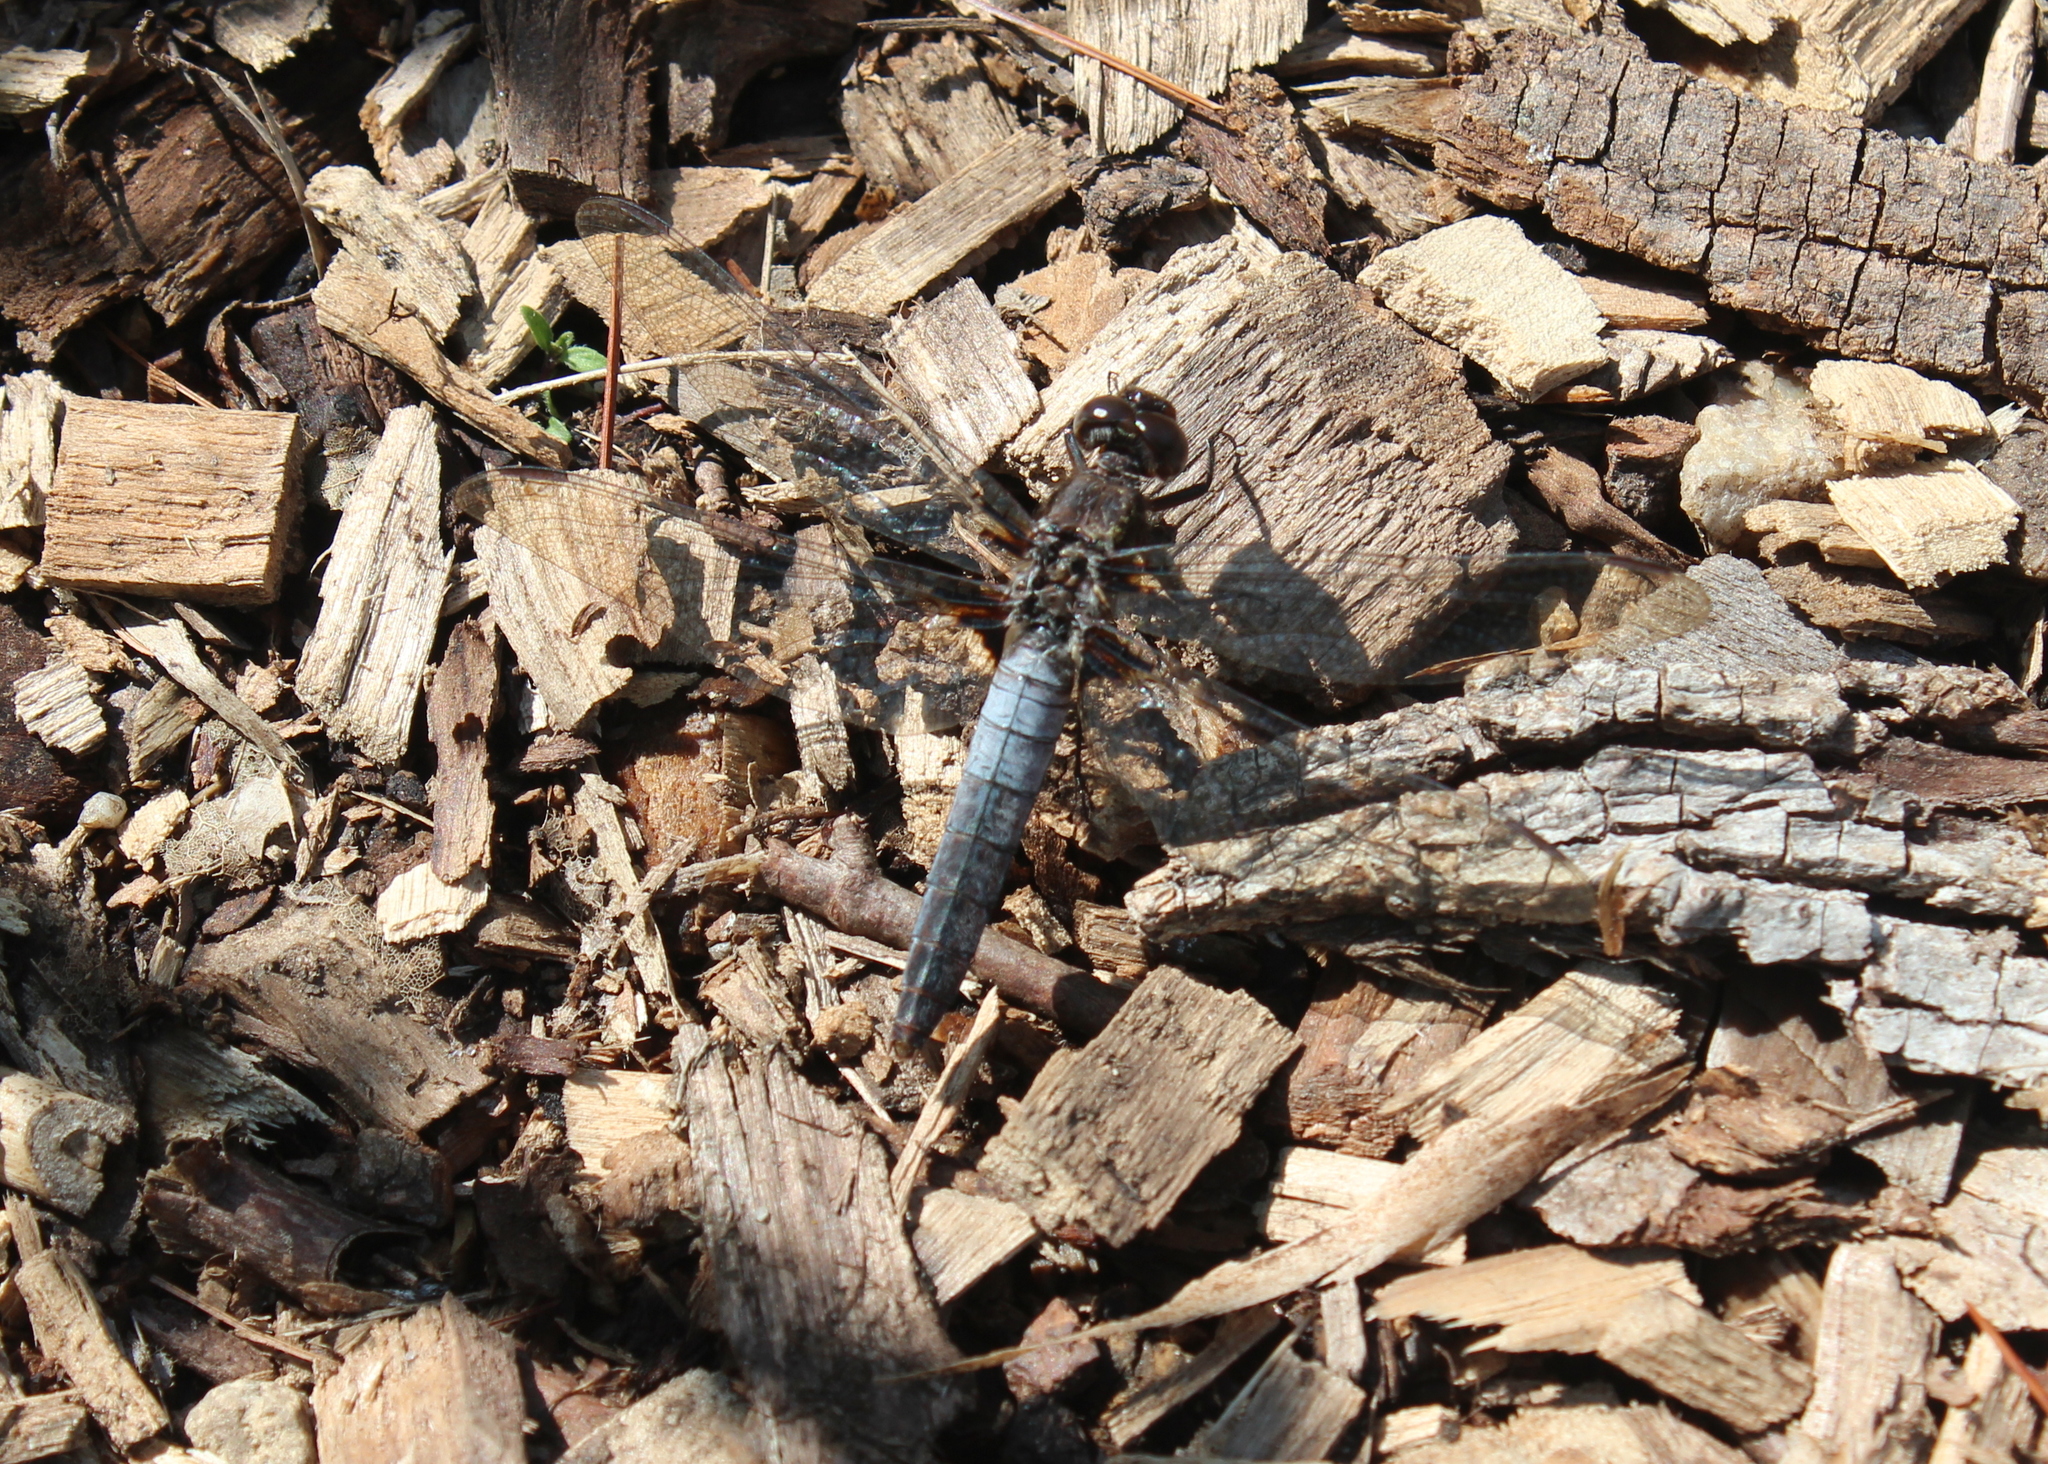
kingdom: Animalia
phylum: Arthropoda
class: Insecta
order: Odonata
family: Libellulidae
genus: Ladona
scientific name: Ladona julia
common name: Chalk-fronted corporal
